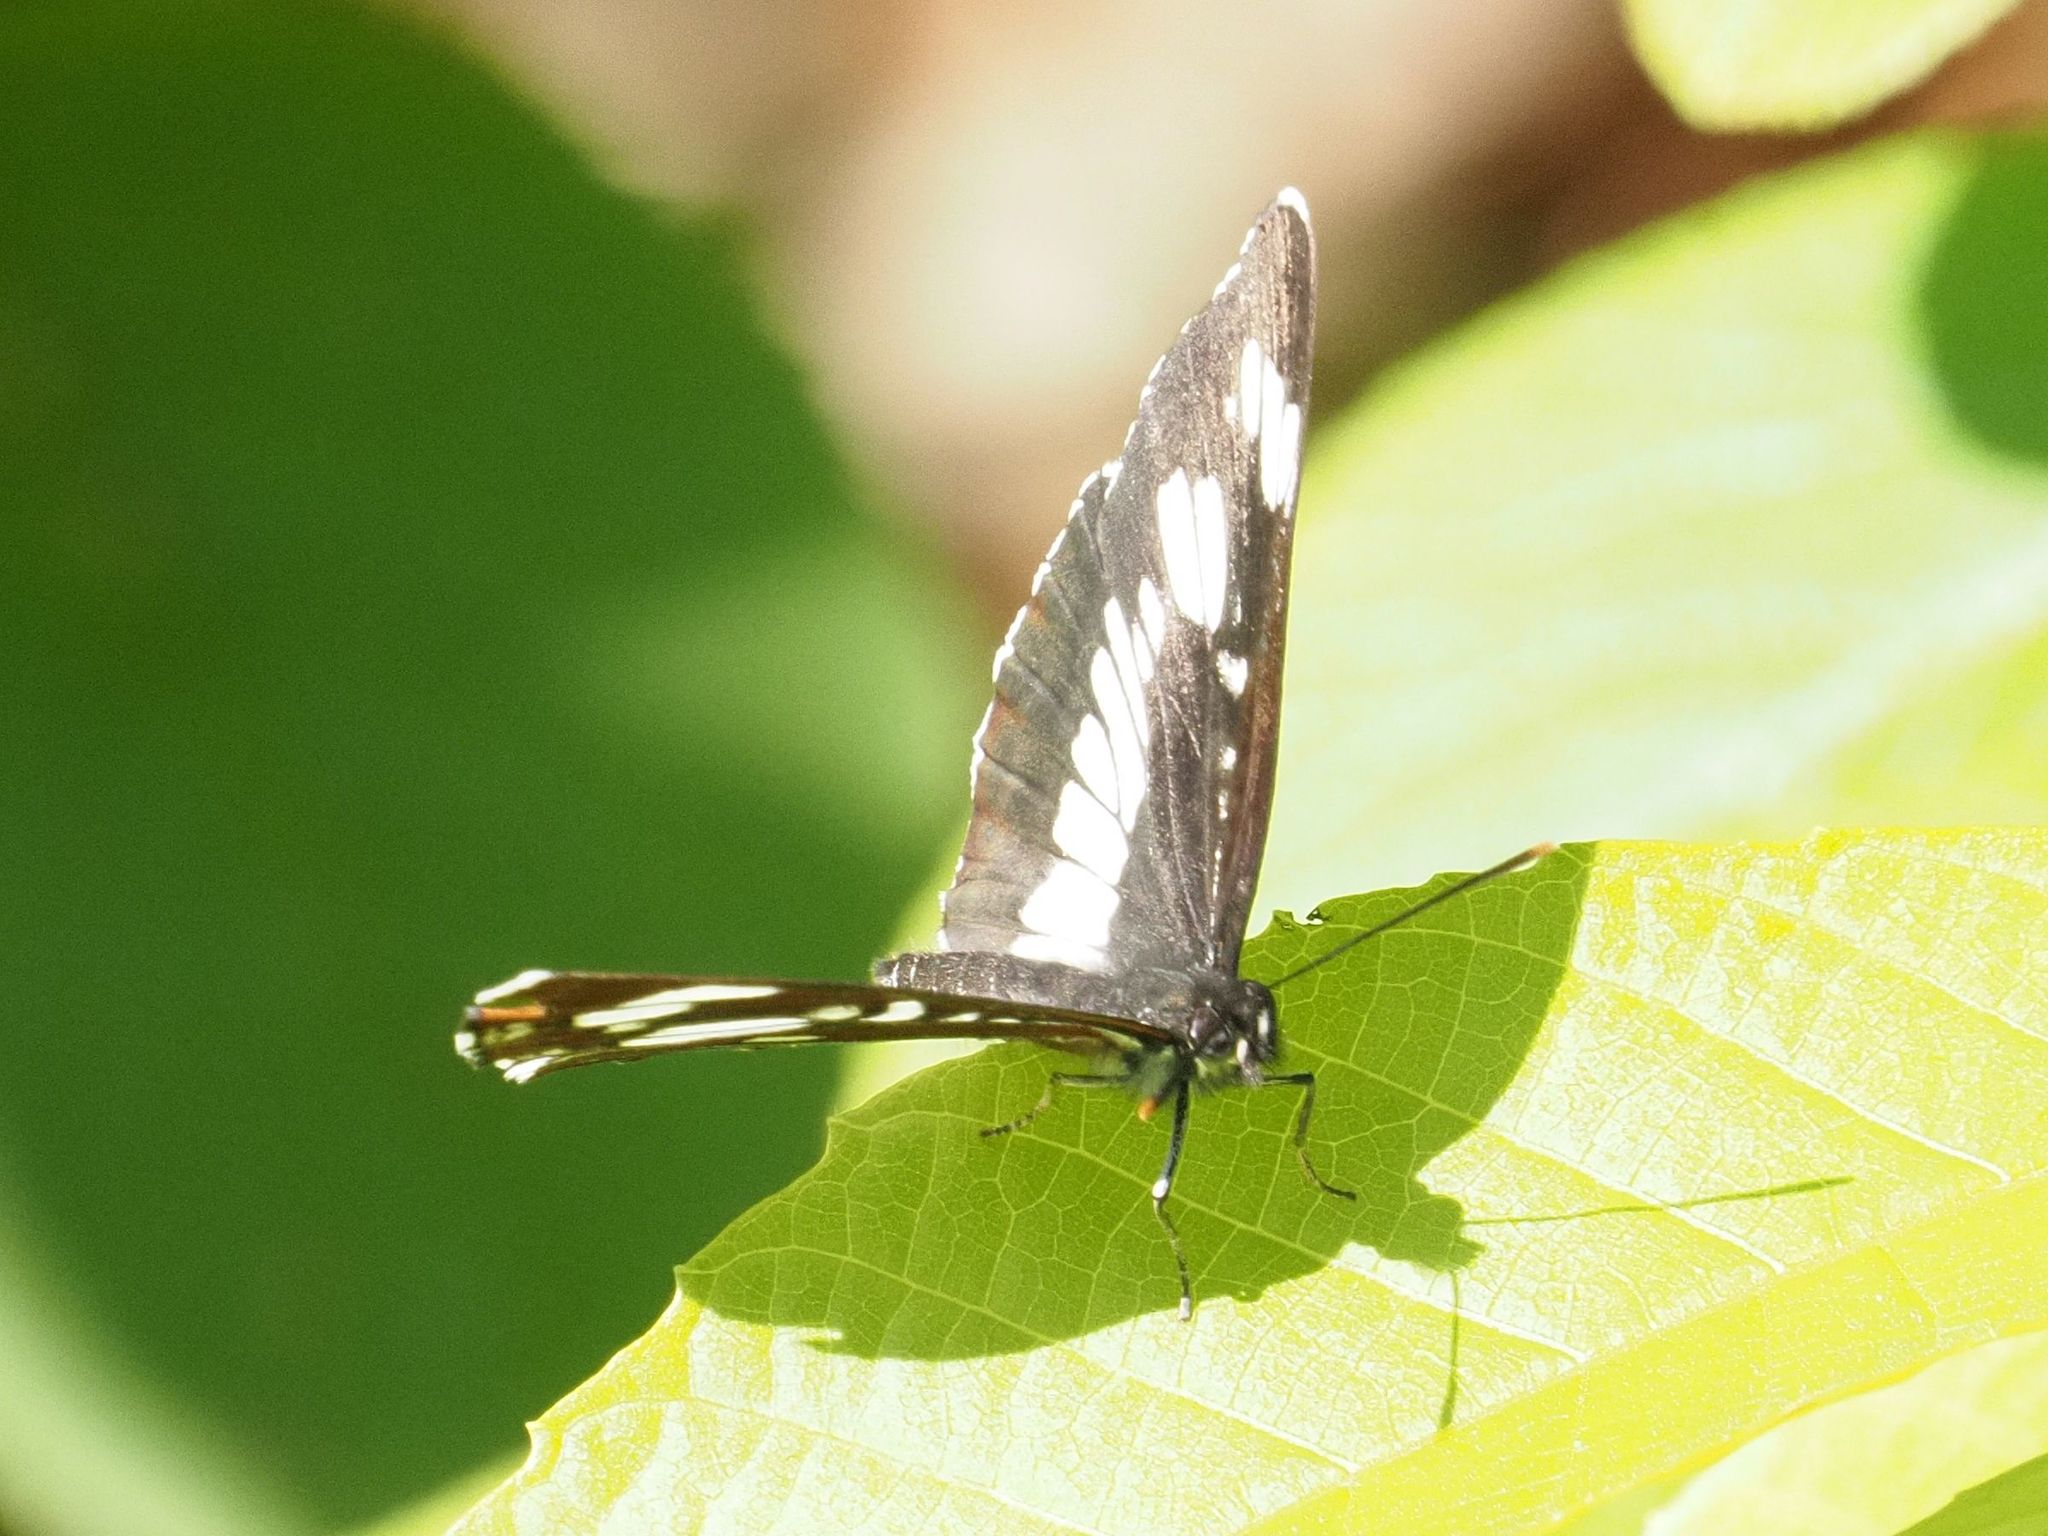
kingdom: Animalia
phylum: Arthropoda
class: Insecta
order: Lepidoptera
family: Nymphalidae
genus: Neptis
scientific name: Neptis rivularis
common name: Hungarian glider
